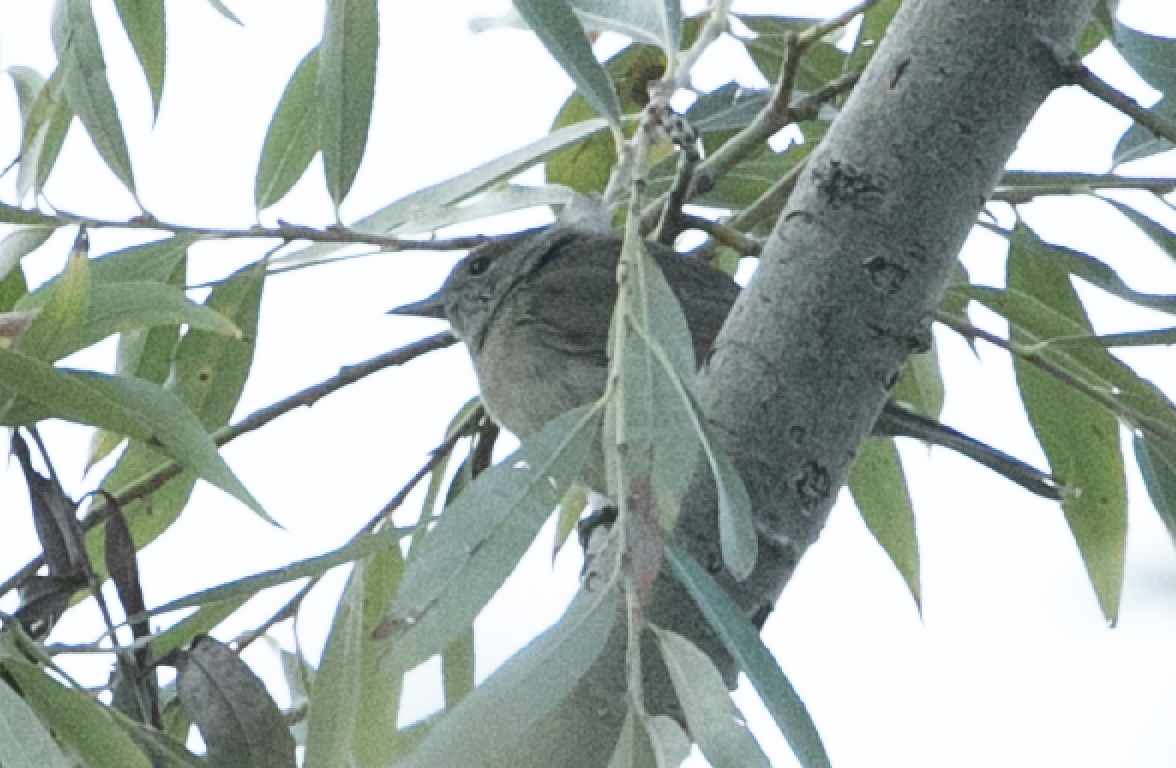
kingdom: Animalia
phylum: Chordata
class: Aves
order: Passeriformes
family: Sylviidae
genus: Sylvia
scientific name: Sylvia atricapilla
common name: Eurasian blackcap
